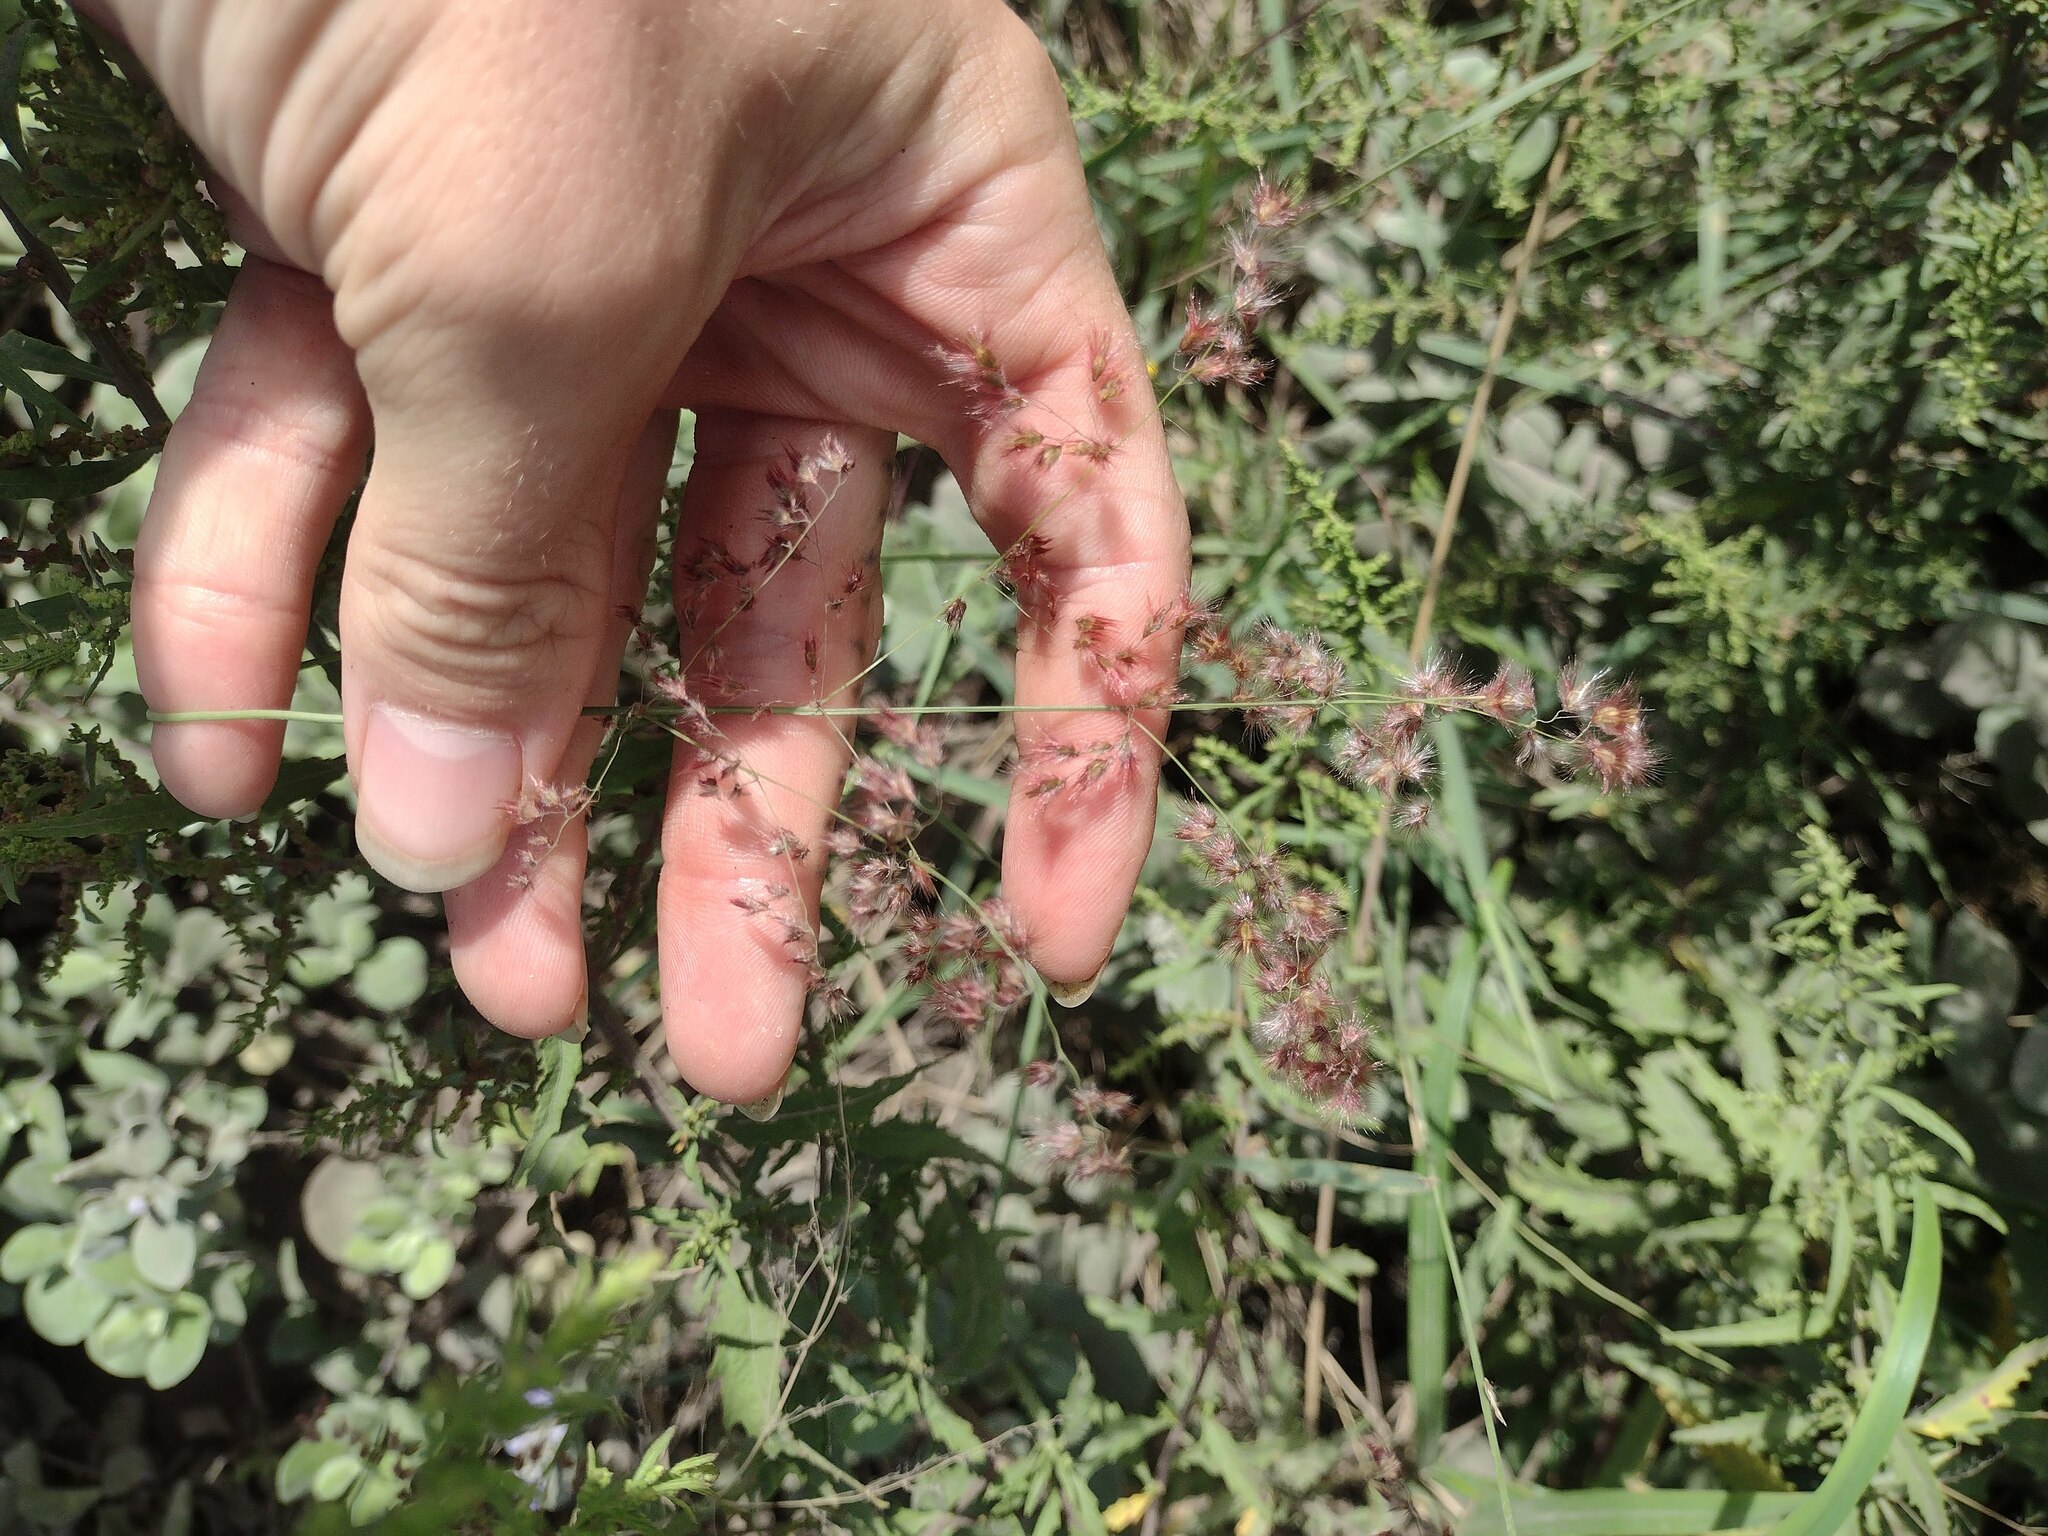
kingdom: Plantae
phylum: Tracheophyta
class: Liliopsida
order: Poales
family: Poaceae
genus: Melinis
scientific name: Melinis repens
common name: Rose natal grass
